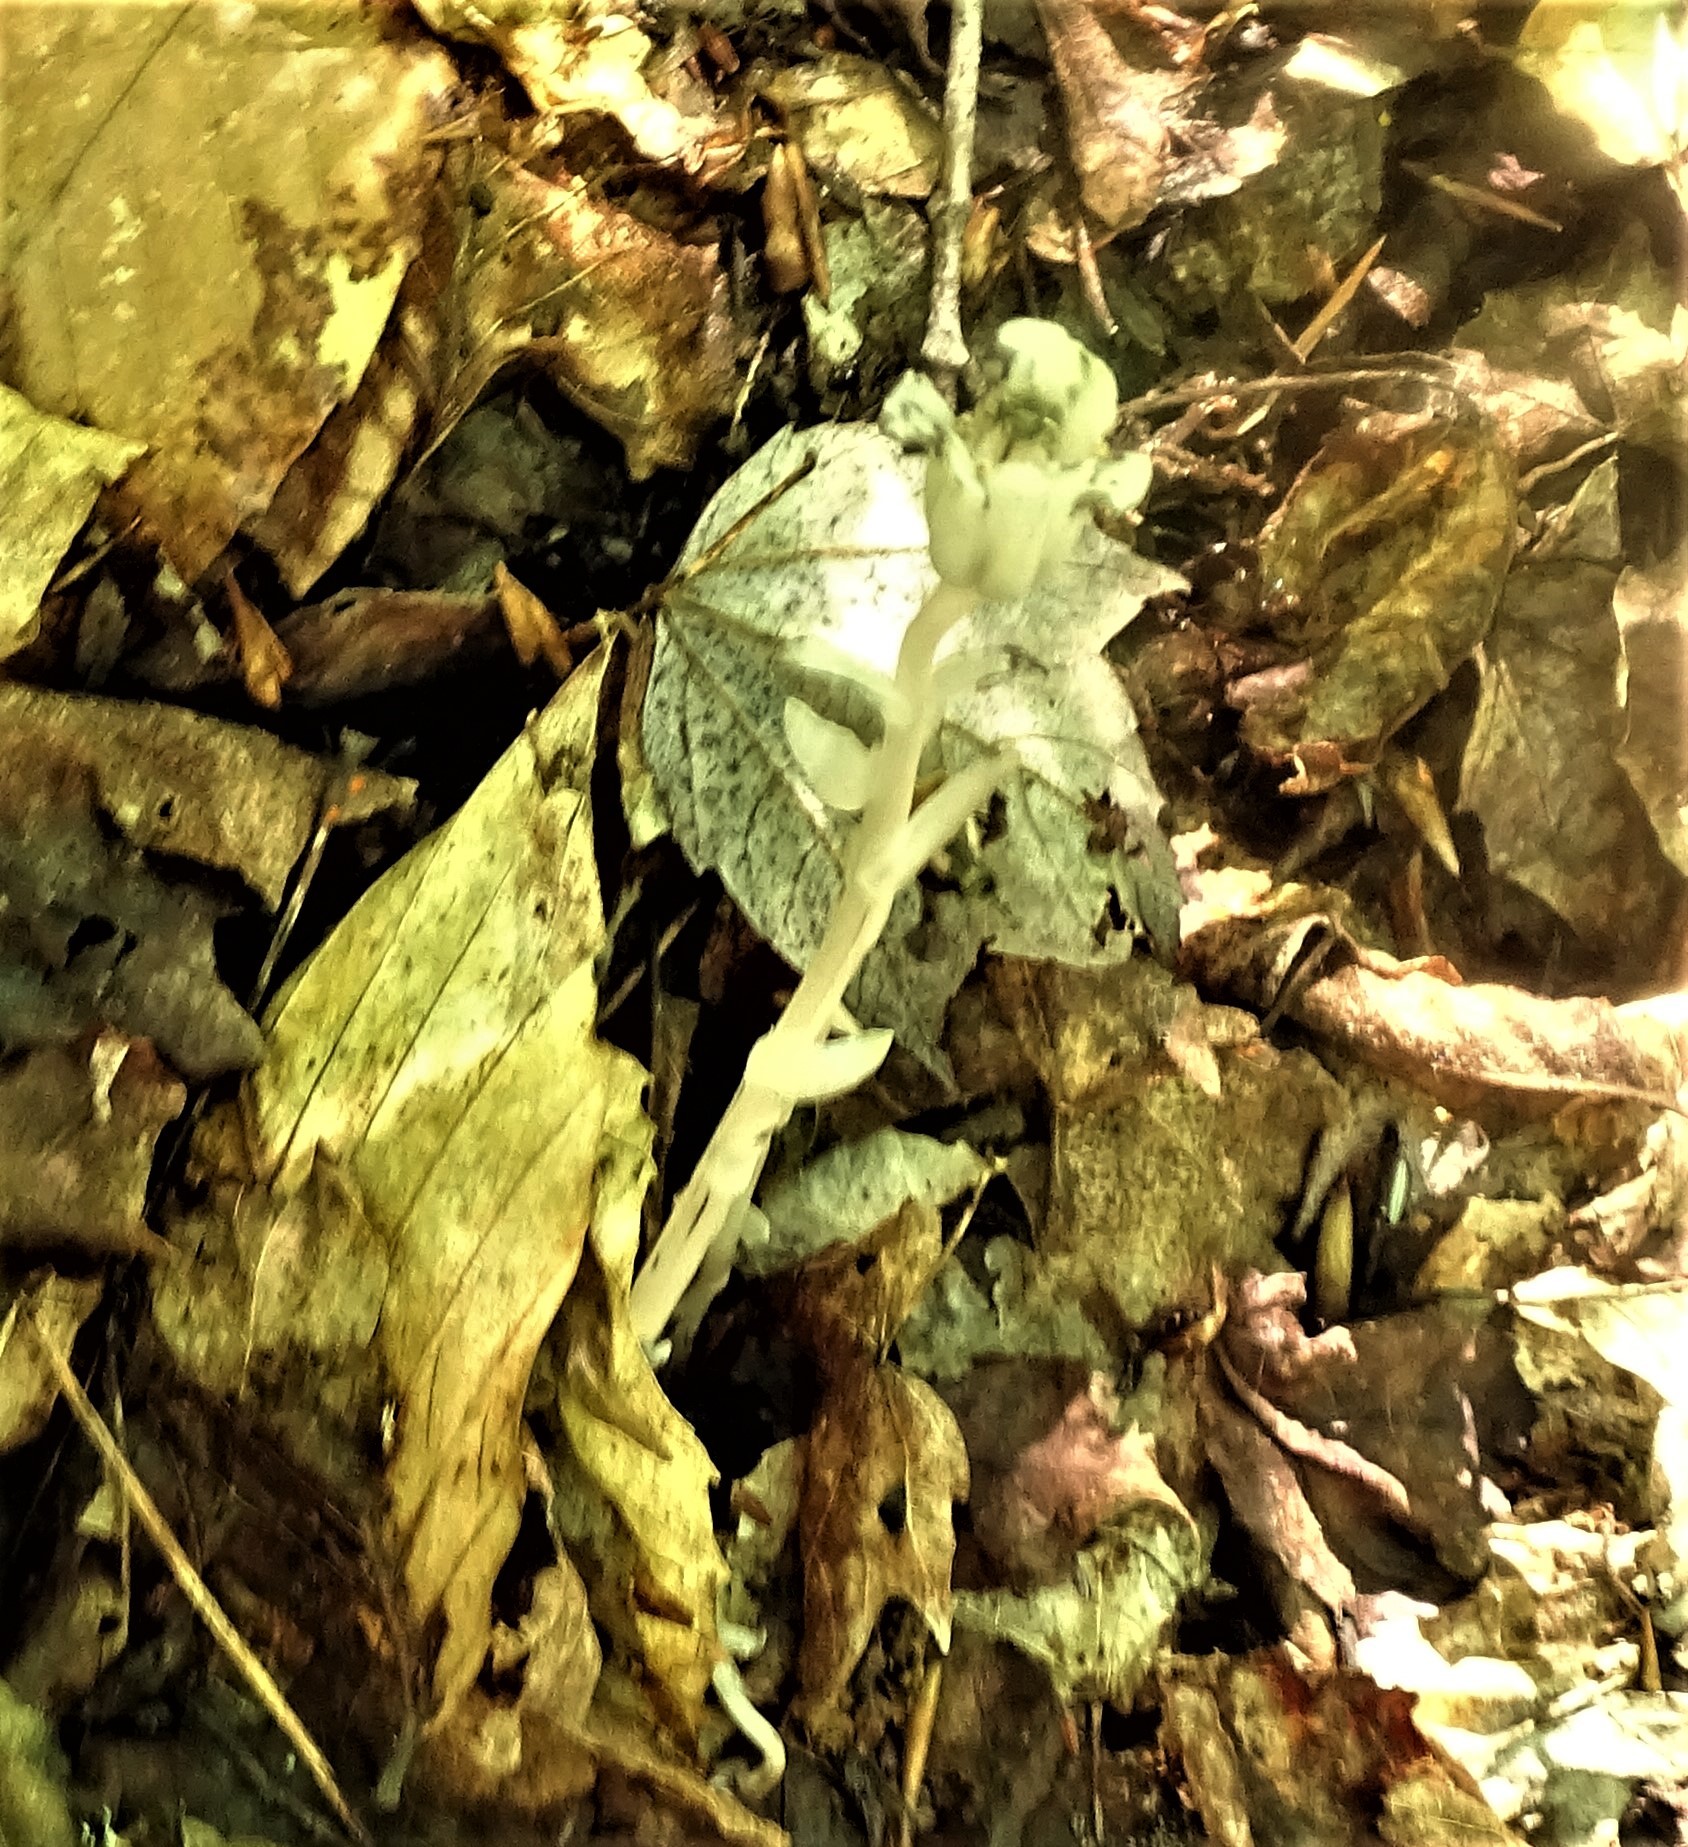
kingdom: Plantae
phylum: Tracheophyta
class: Magnoliopsida
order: Ericales
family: Ericaceae
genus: Monotropa
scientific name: Monotropa uniflora
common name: Convulsion root
